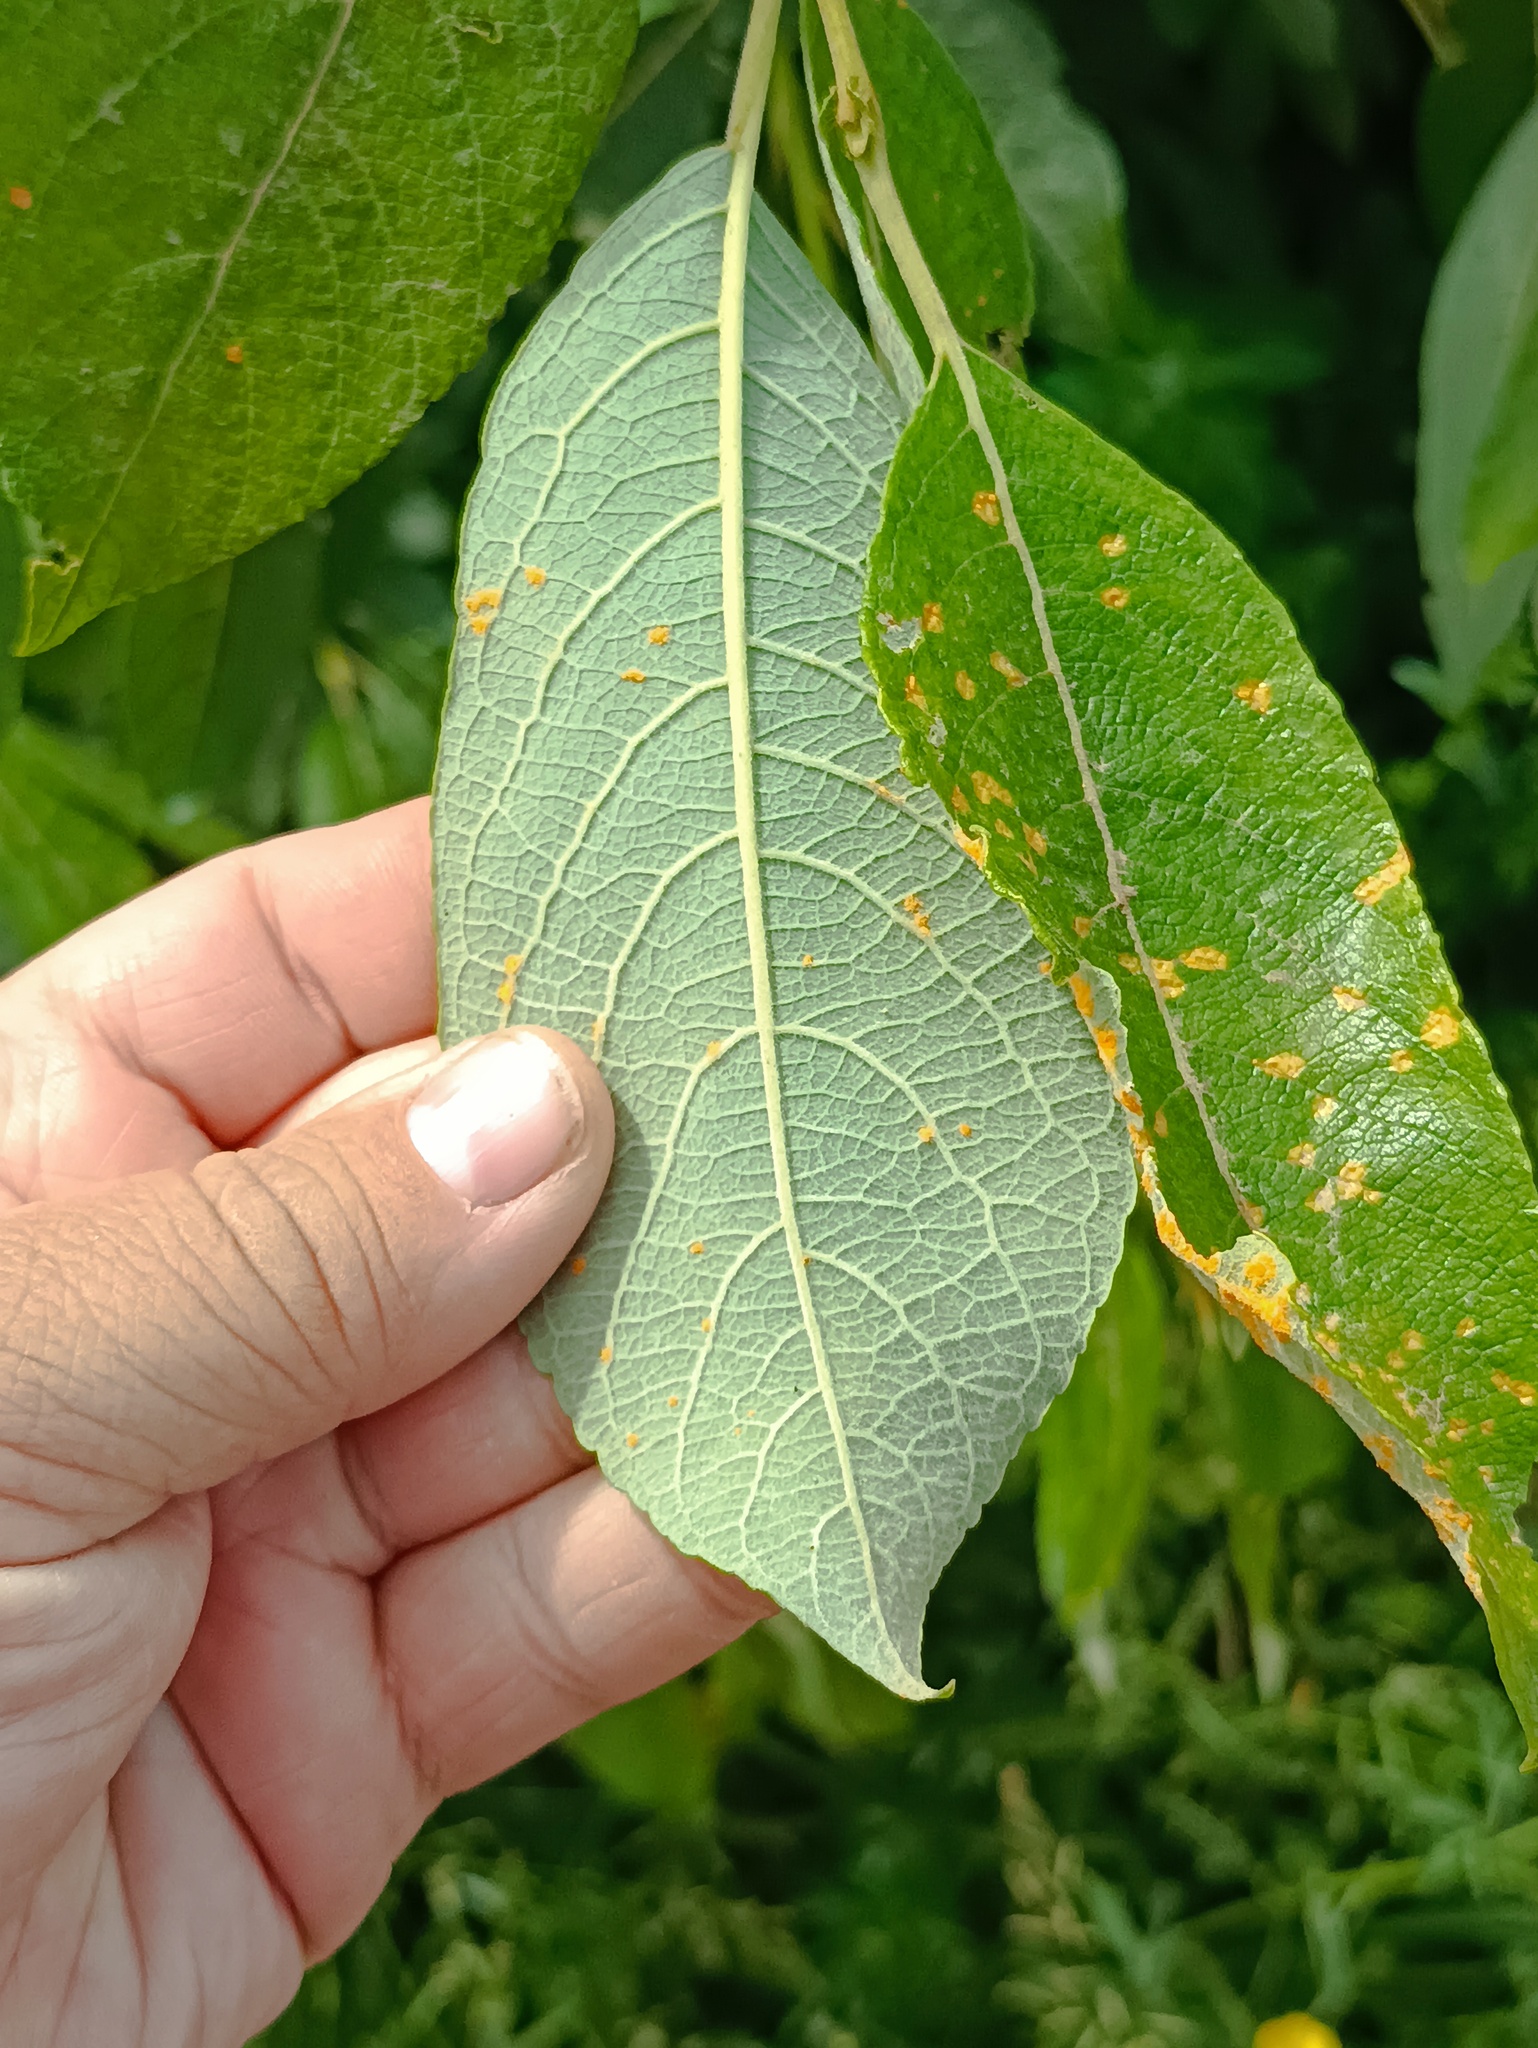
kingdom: Plantae
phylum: Tracheophyta
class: Magnoliopsida
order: Malpighiales
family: Salicaceae
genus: Salix
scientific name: Salix caprea
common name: Goat willow
